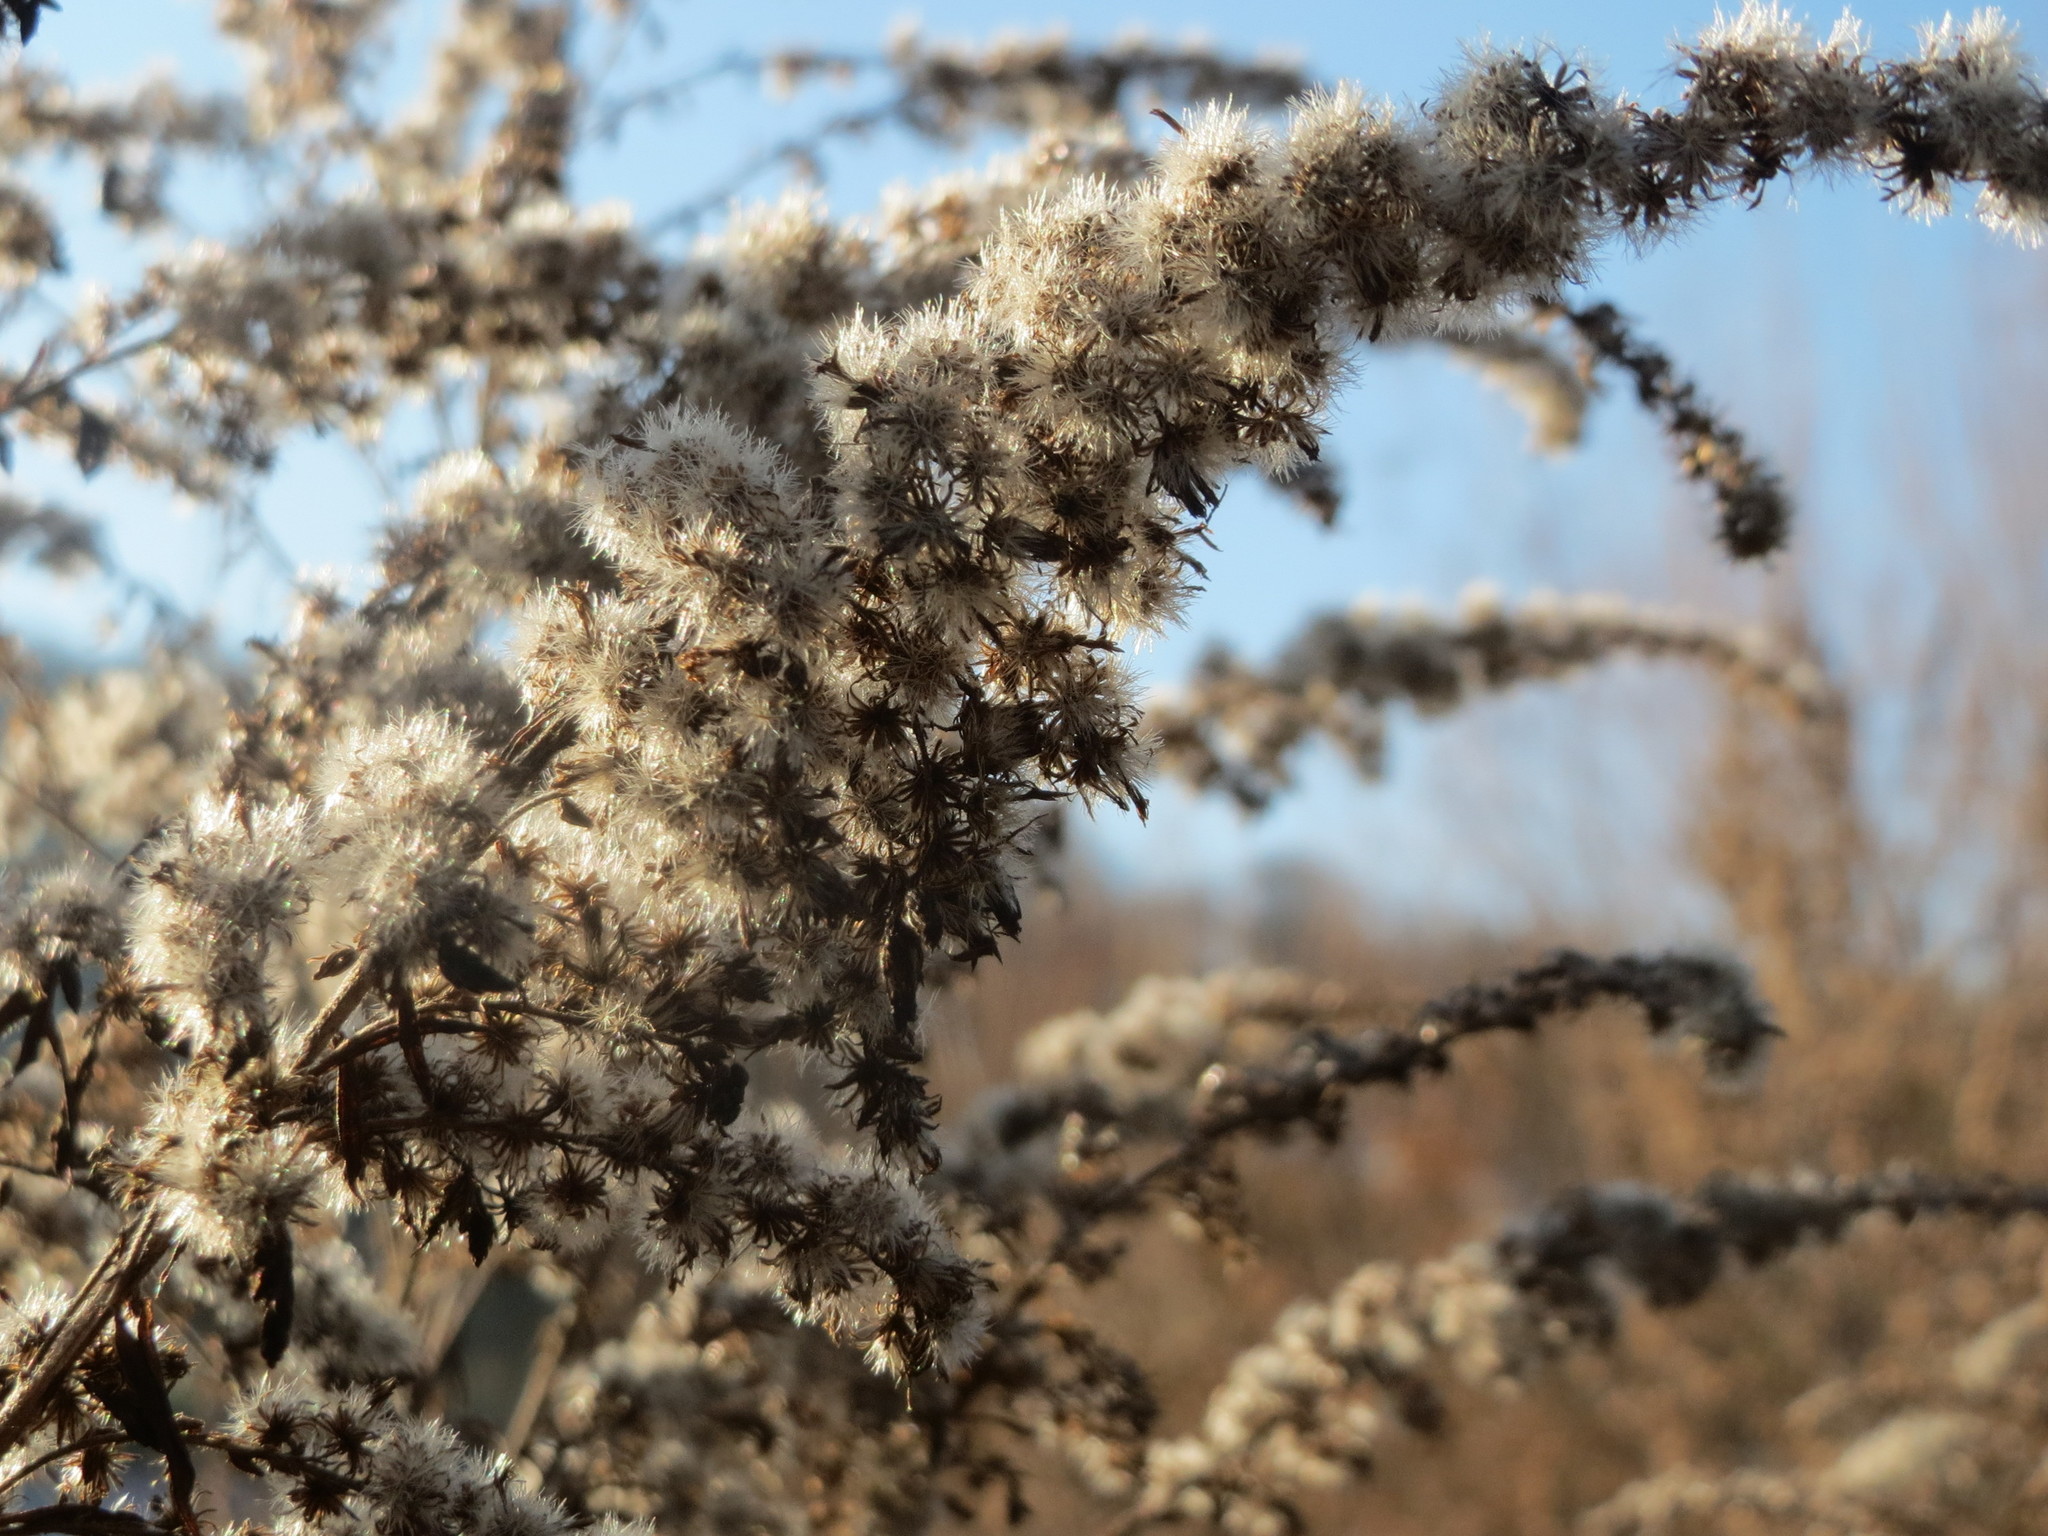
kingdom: Plantae
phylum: Tracheophyta
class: Magnoliopsida
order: Asterales
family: Asteraceae
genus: Solidago
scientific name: Solidago canadensis
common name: Canada goldenrod
